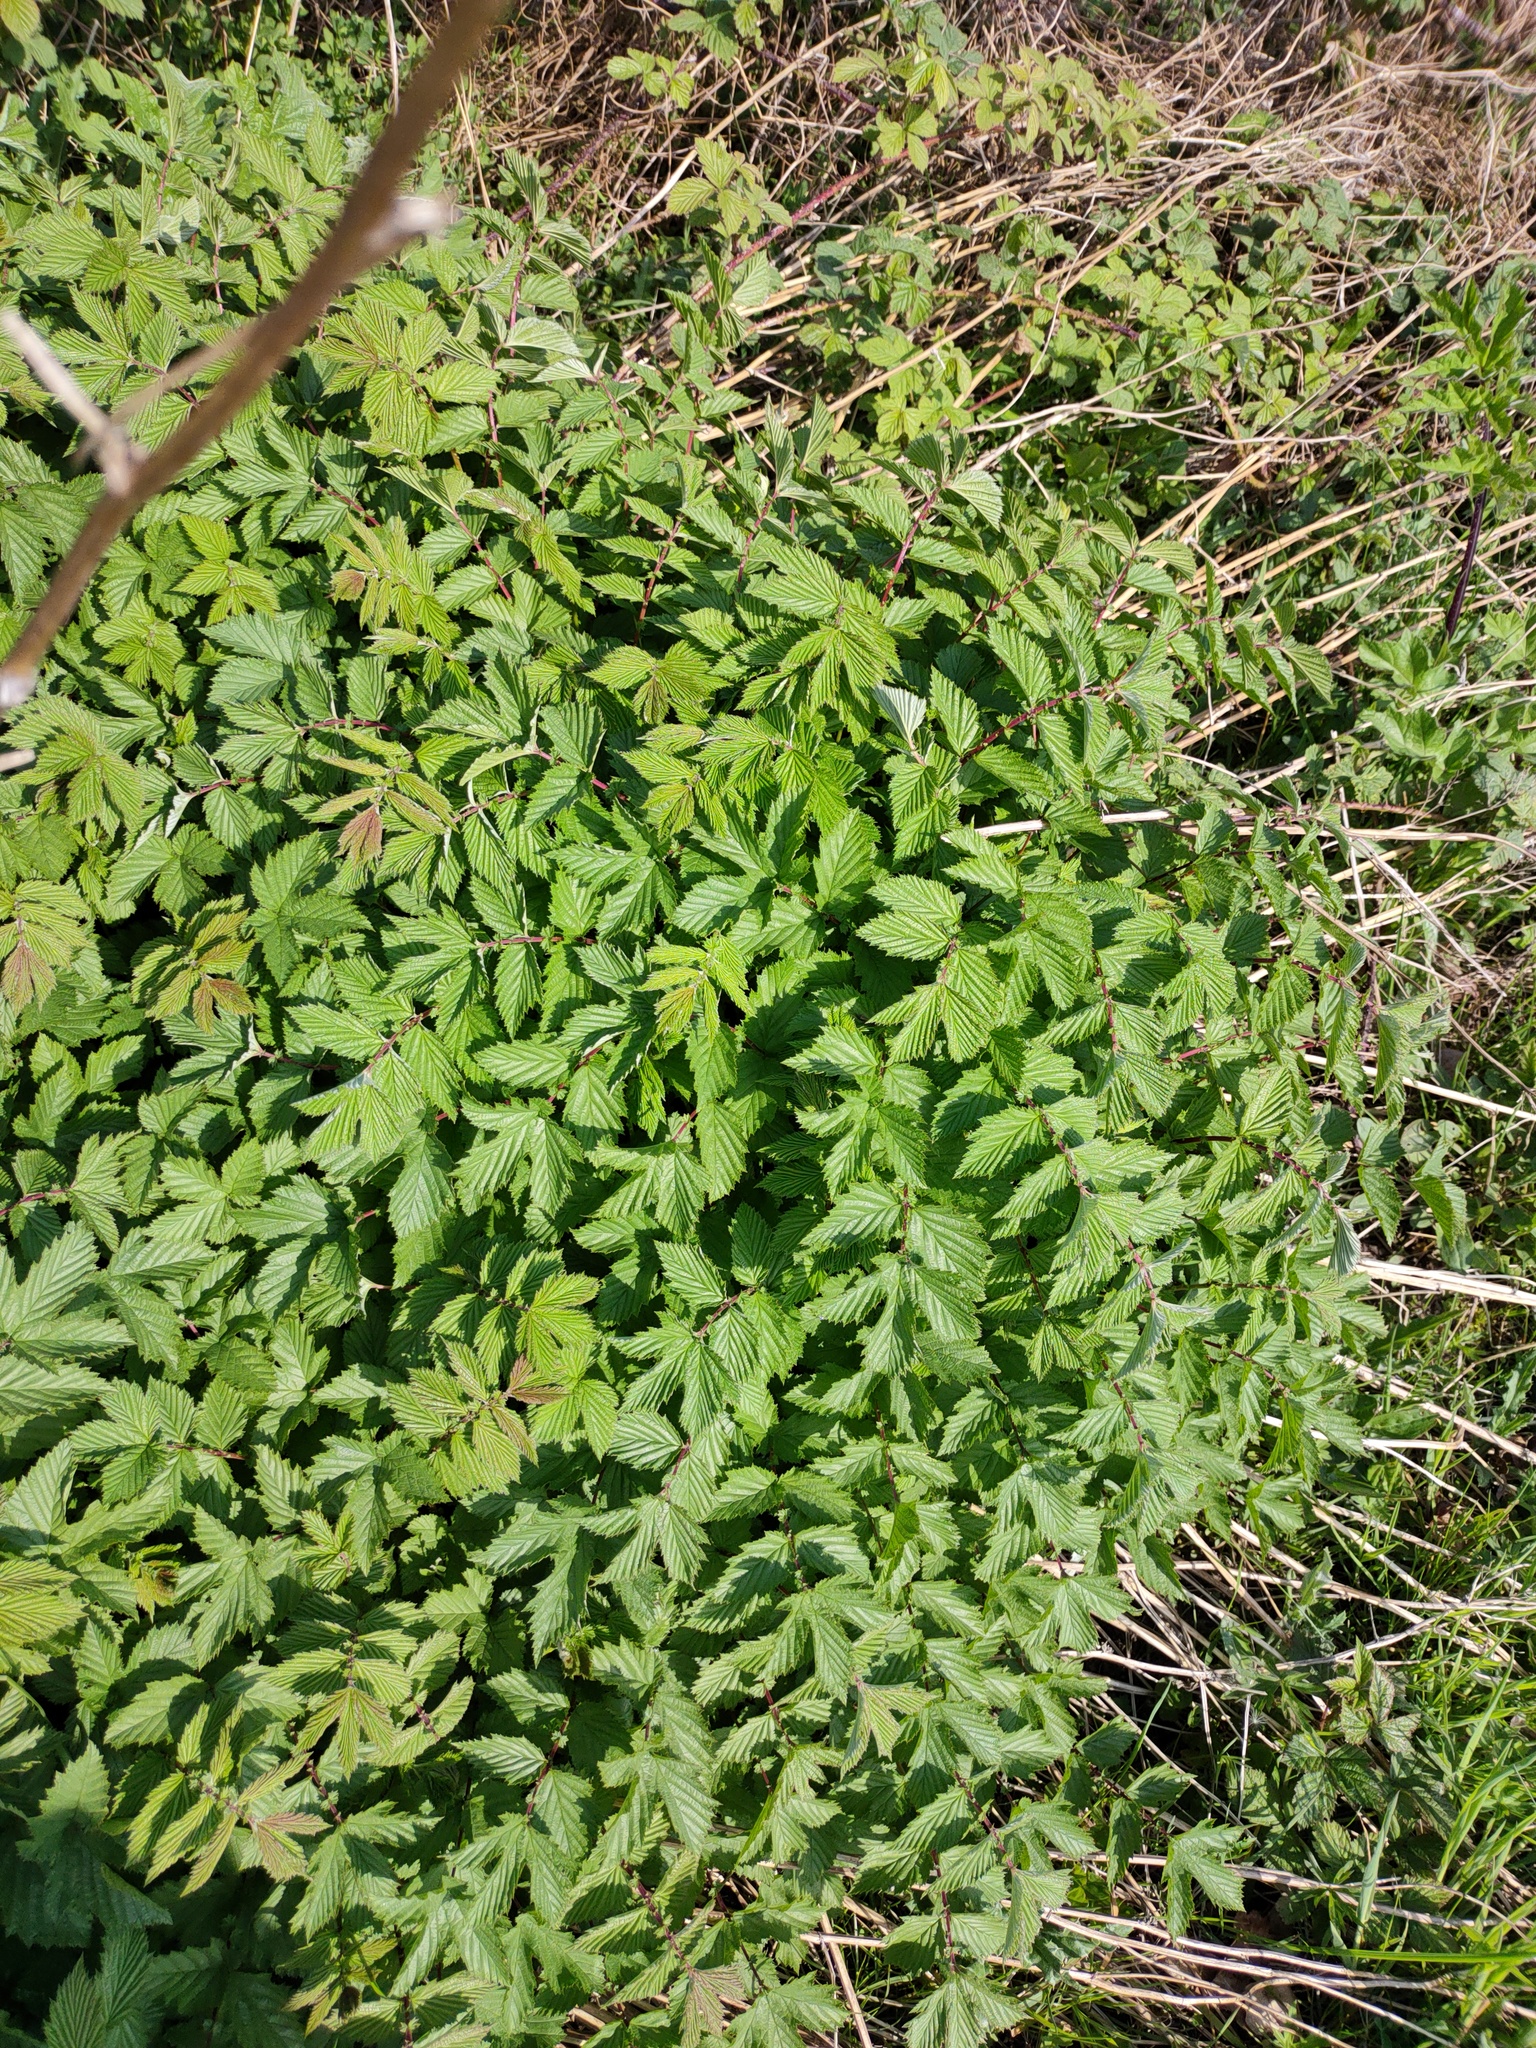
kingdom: Plantae
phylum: Tracheophyta
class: Magnoliopsida
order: Rosales
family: Rosaceae
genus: Filipendula
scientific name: Filipendula ulmaria
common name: Meadowsweet
